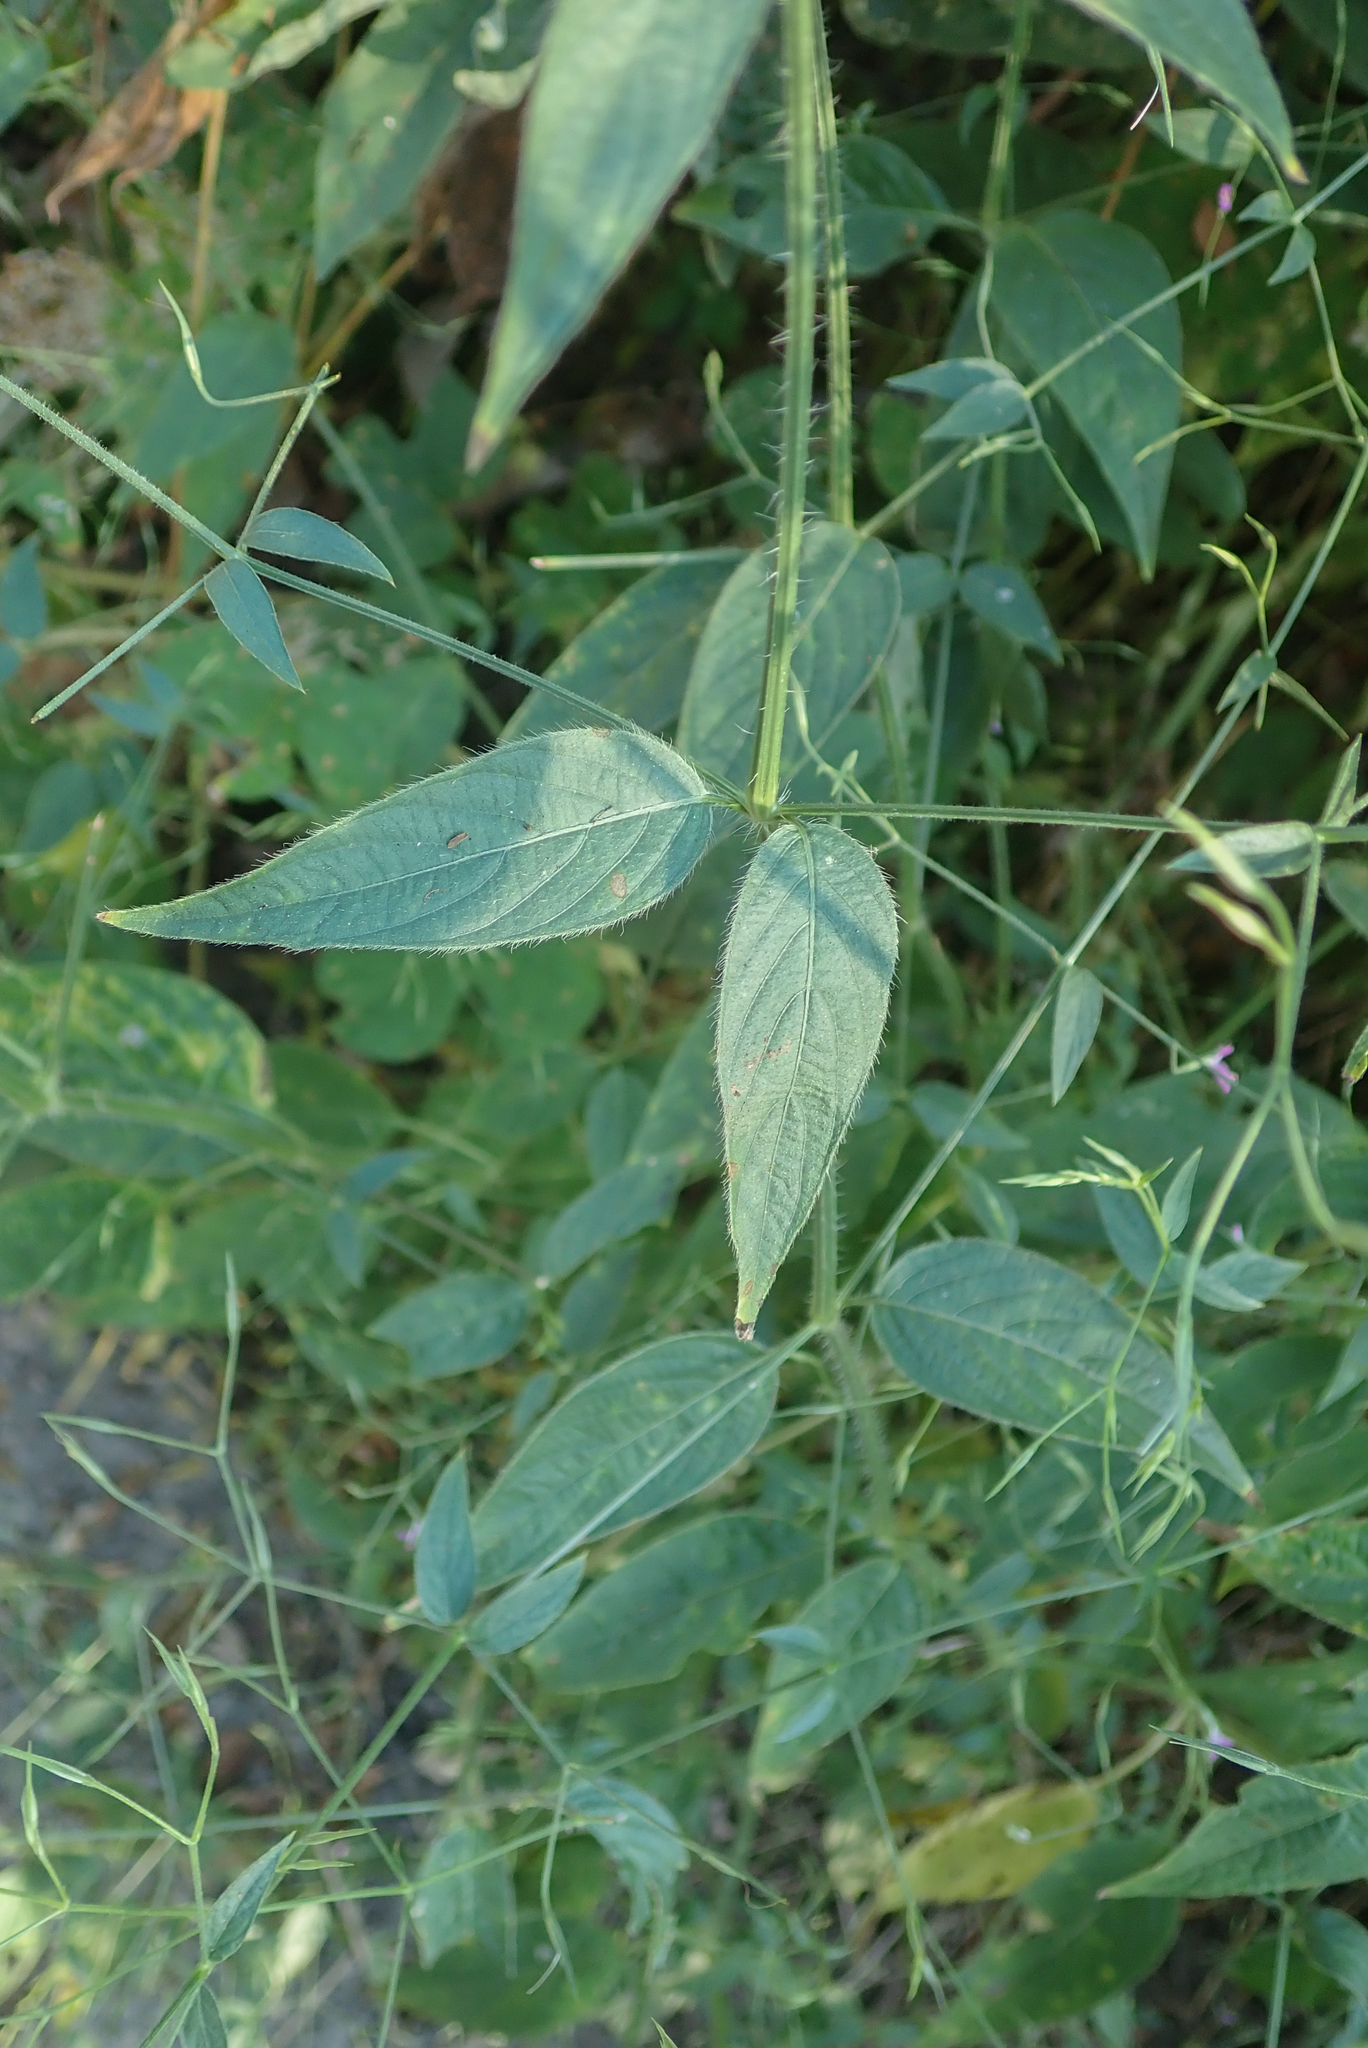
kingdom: Plantae
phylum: Tracheophyta
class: Magnoliopsida
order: Lamiales
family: Acanthaceae
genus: Dicliptera
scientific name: Dicliptera paniculata
